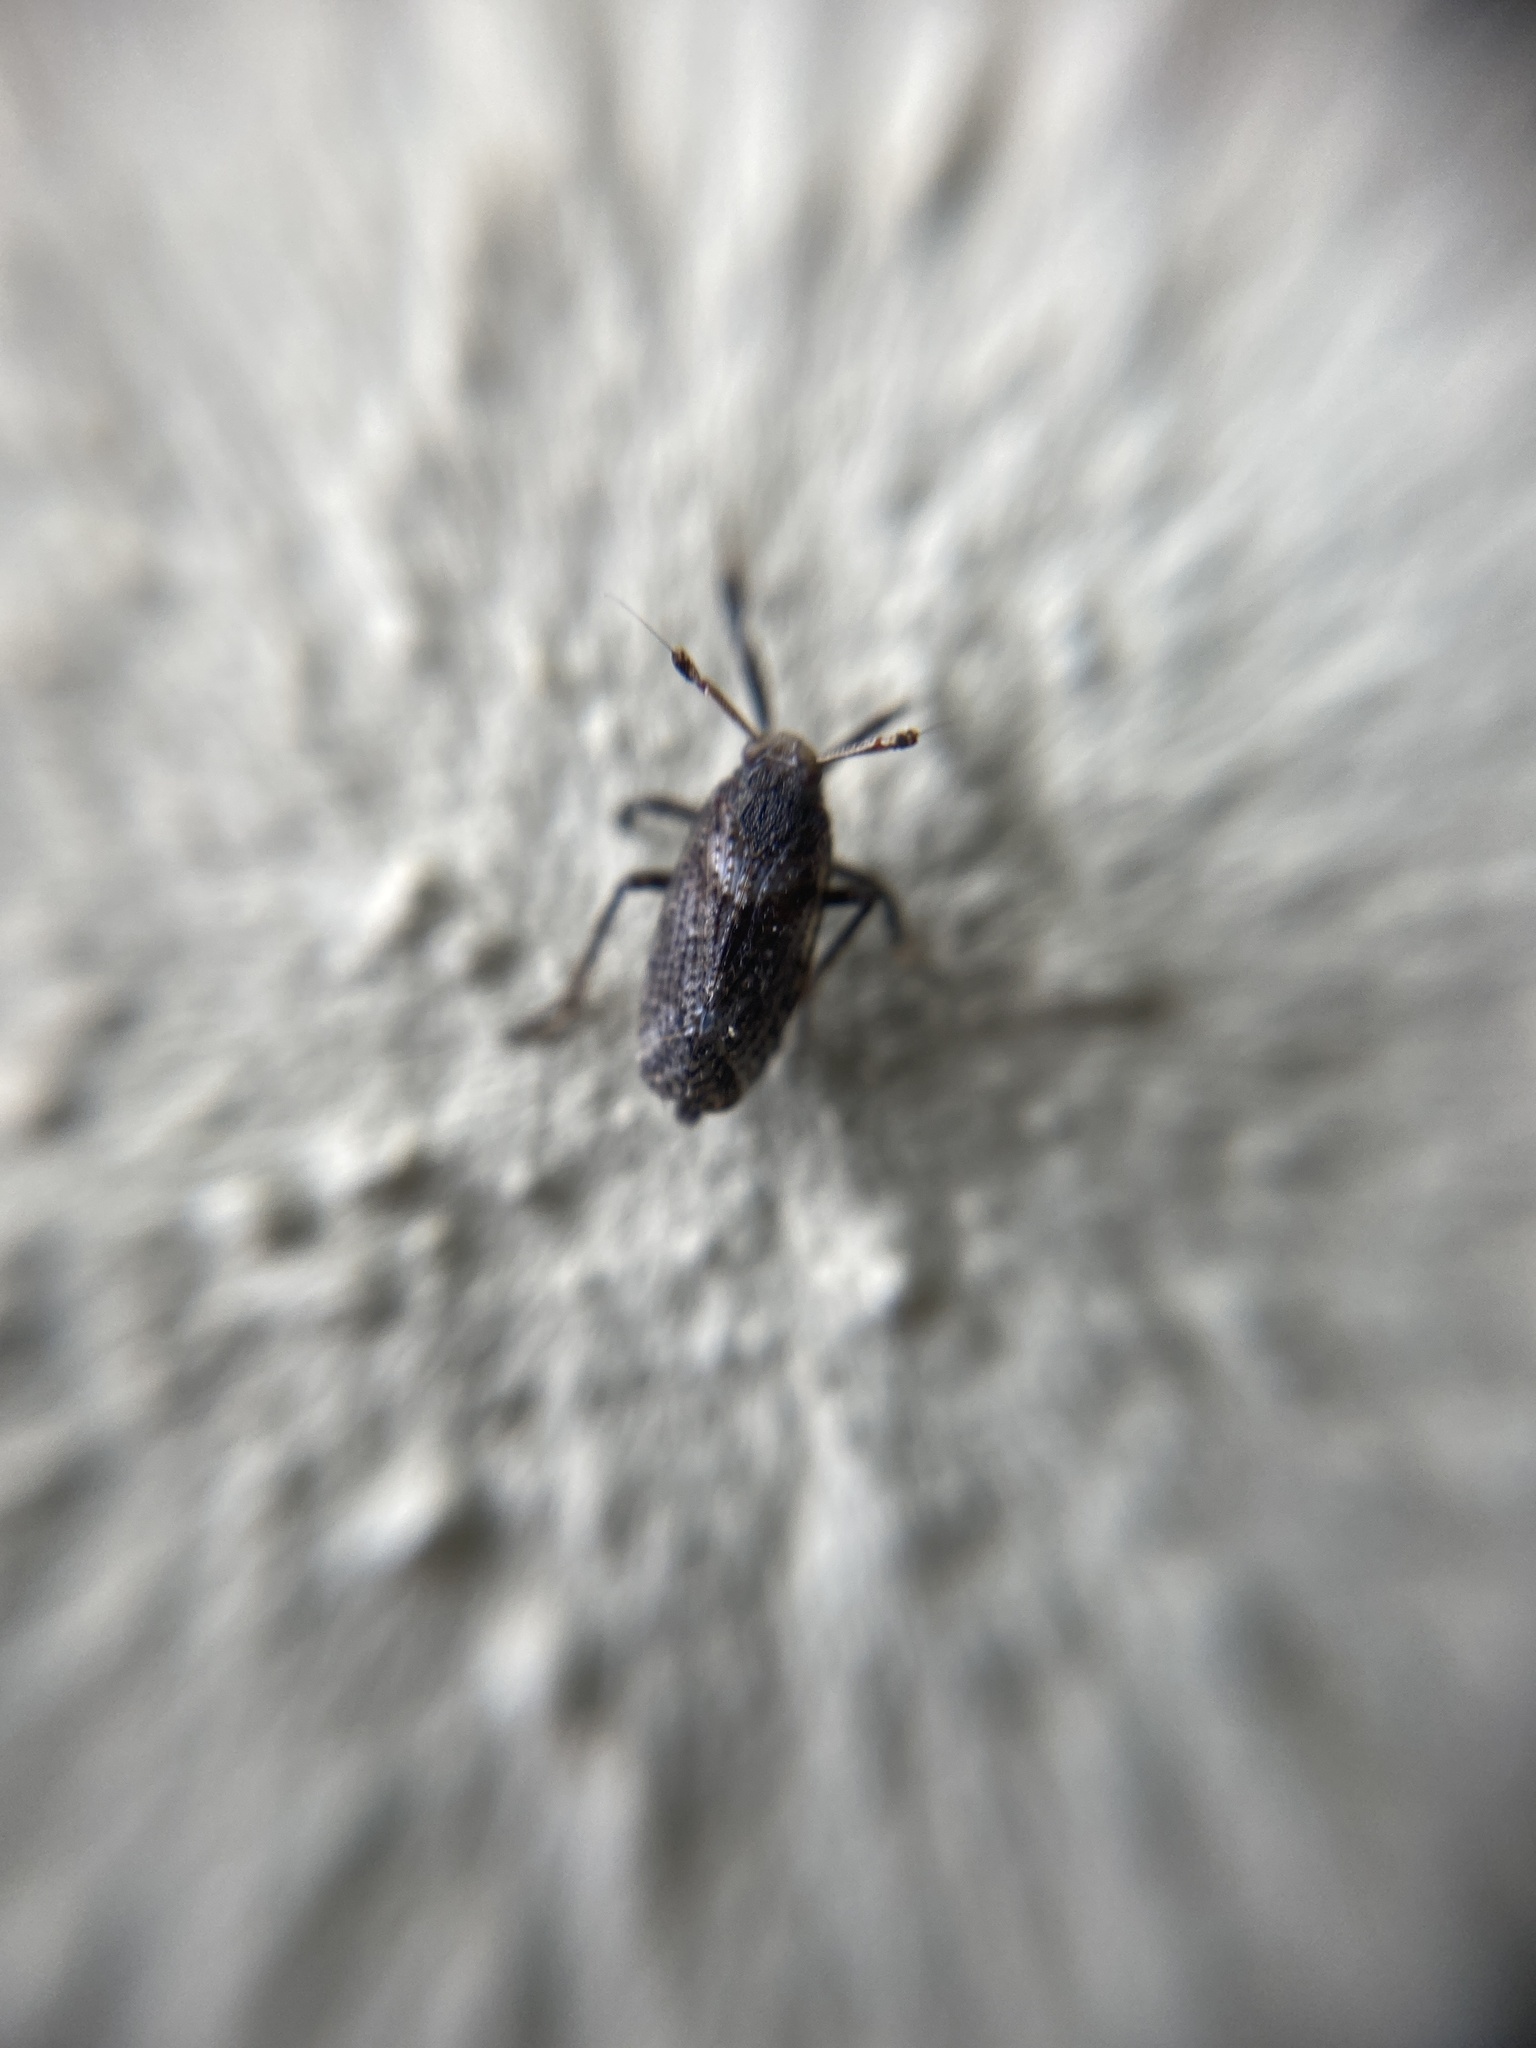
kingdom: Animalia
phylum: Arthropoda
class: Insecta
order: Hemiptera
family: Delphacidae
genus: Asiraca
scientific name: Asiraca clavicornis
